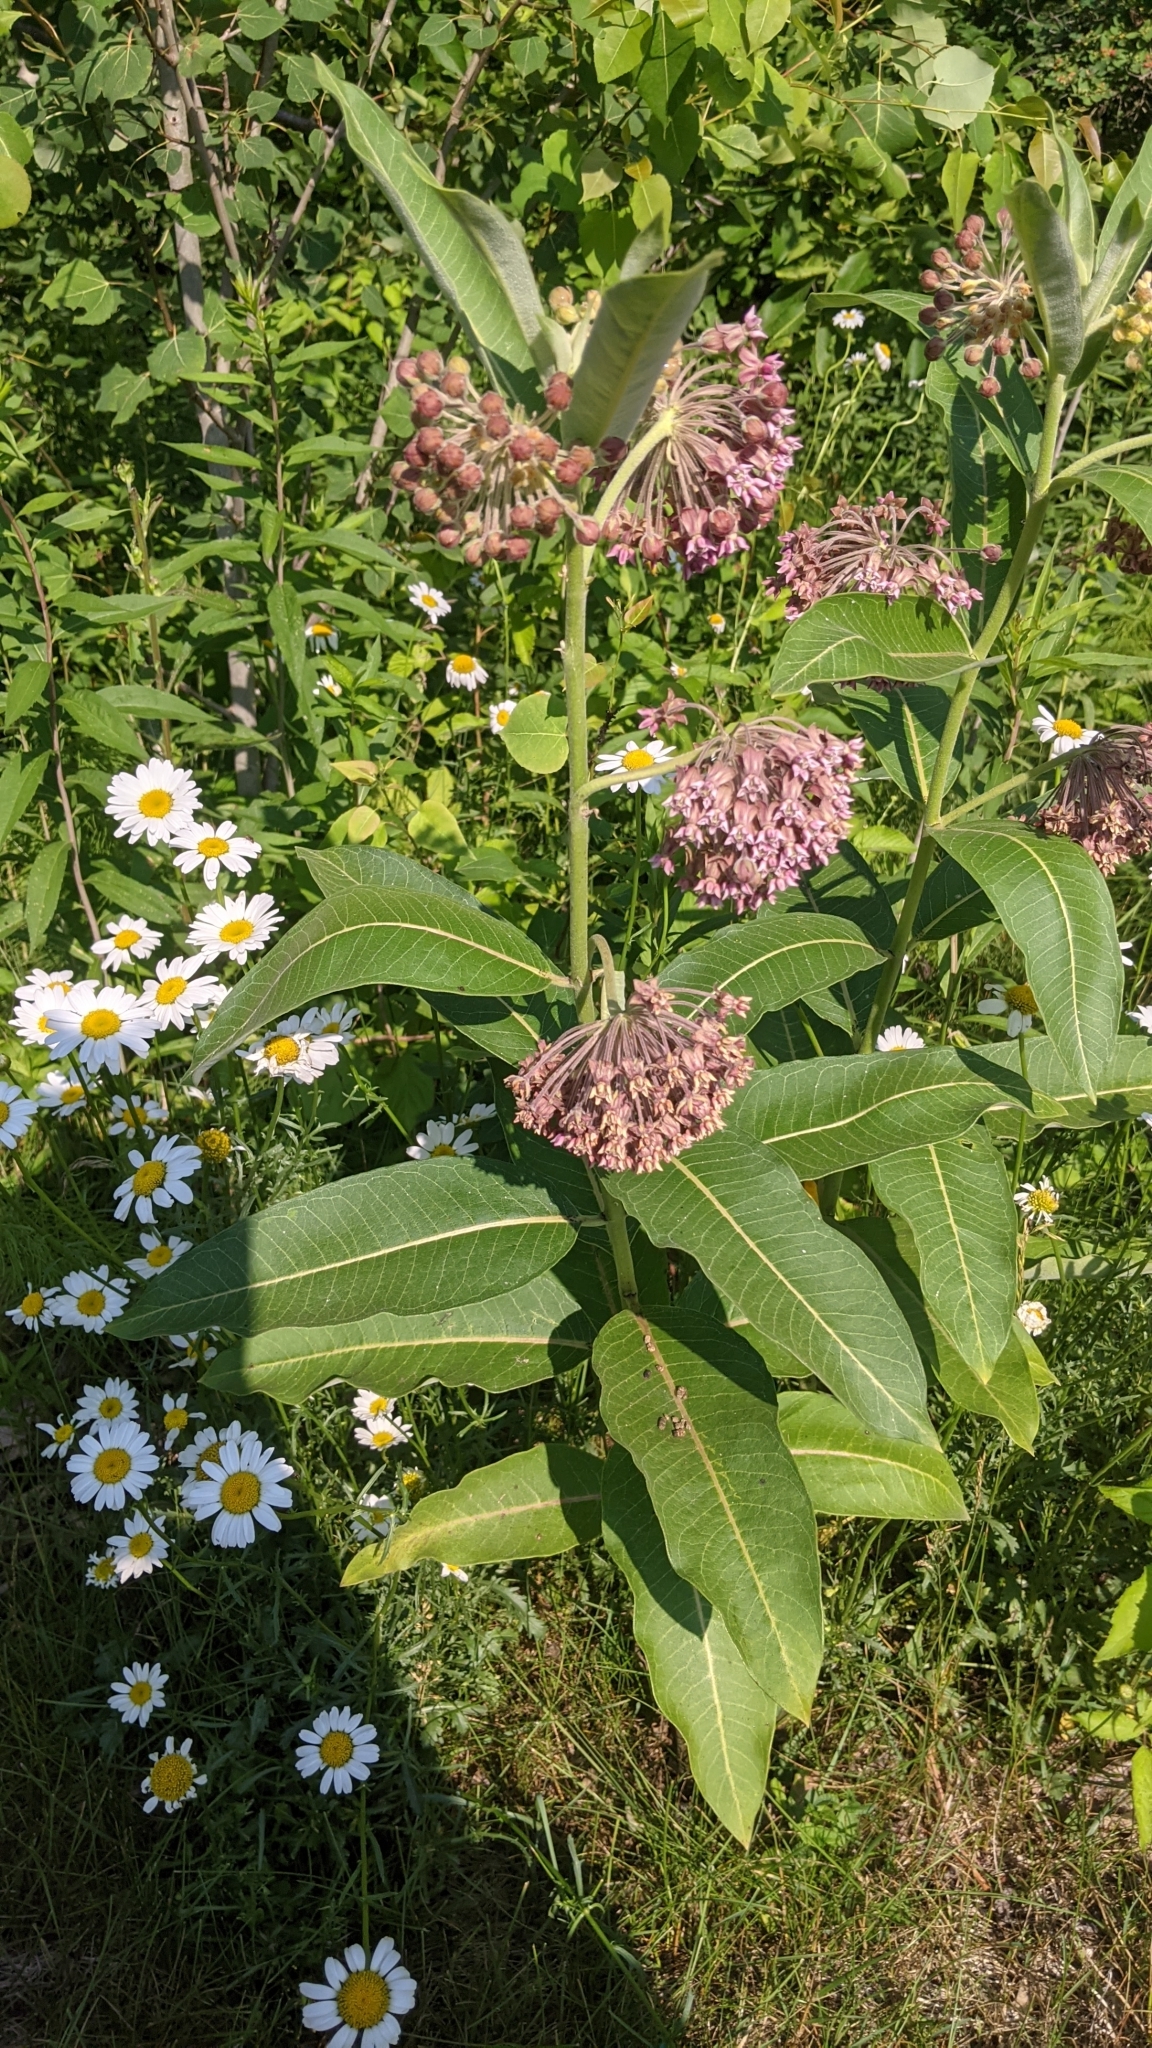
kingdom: Plantae
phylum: Tracheophyta
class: Magnoliopsida
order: Gentianales
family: Apocynaceae
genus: Asclepias
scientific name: Asclepias syriaca
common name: Common milkweed
